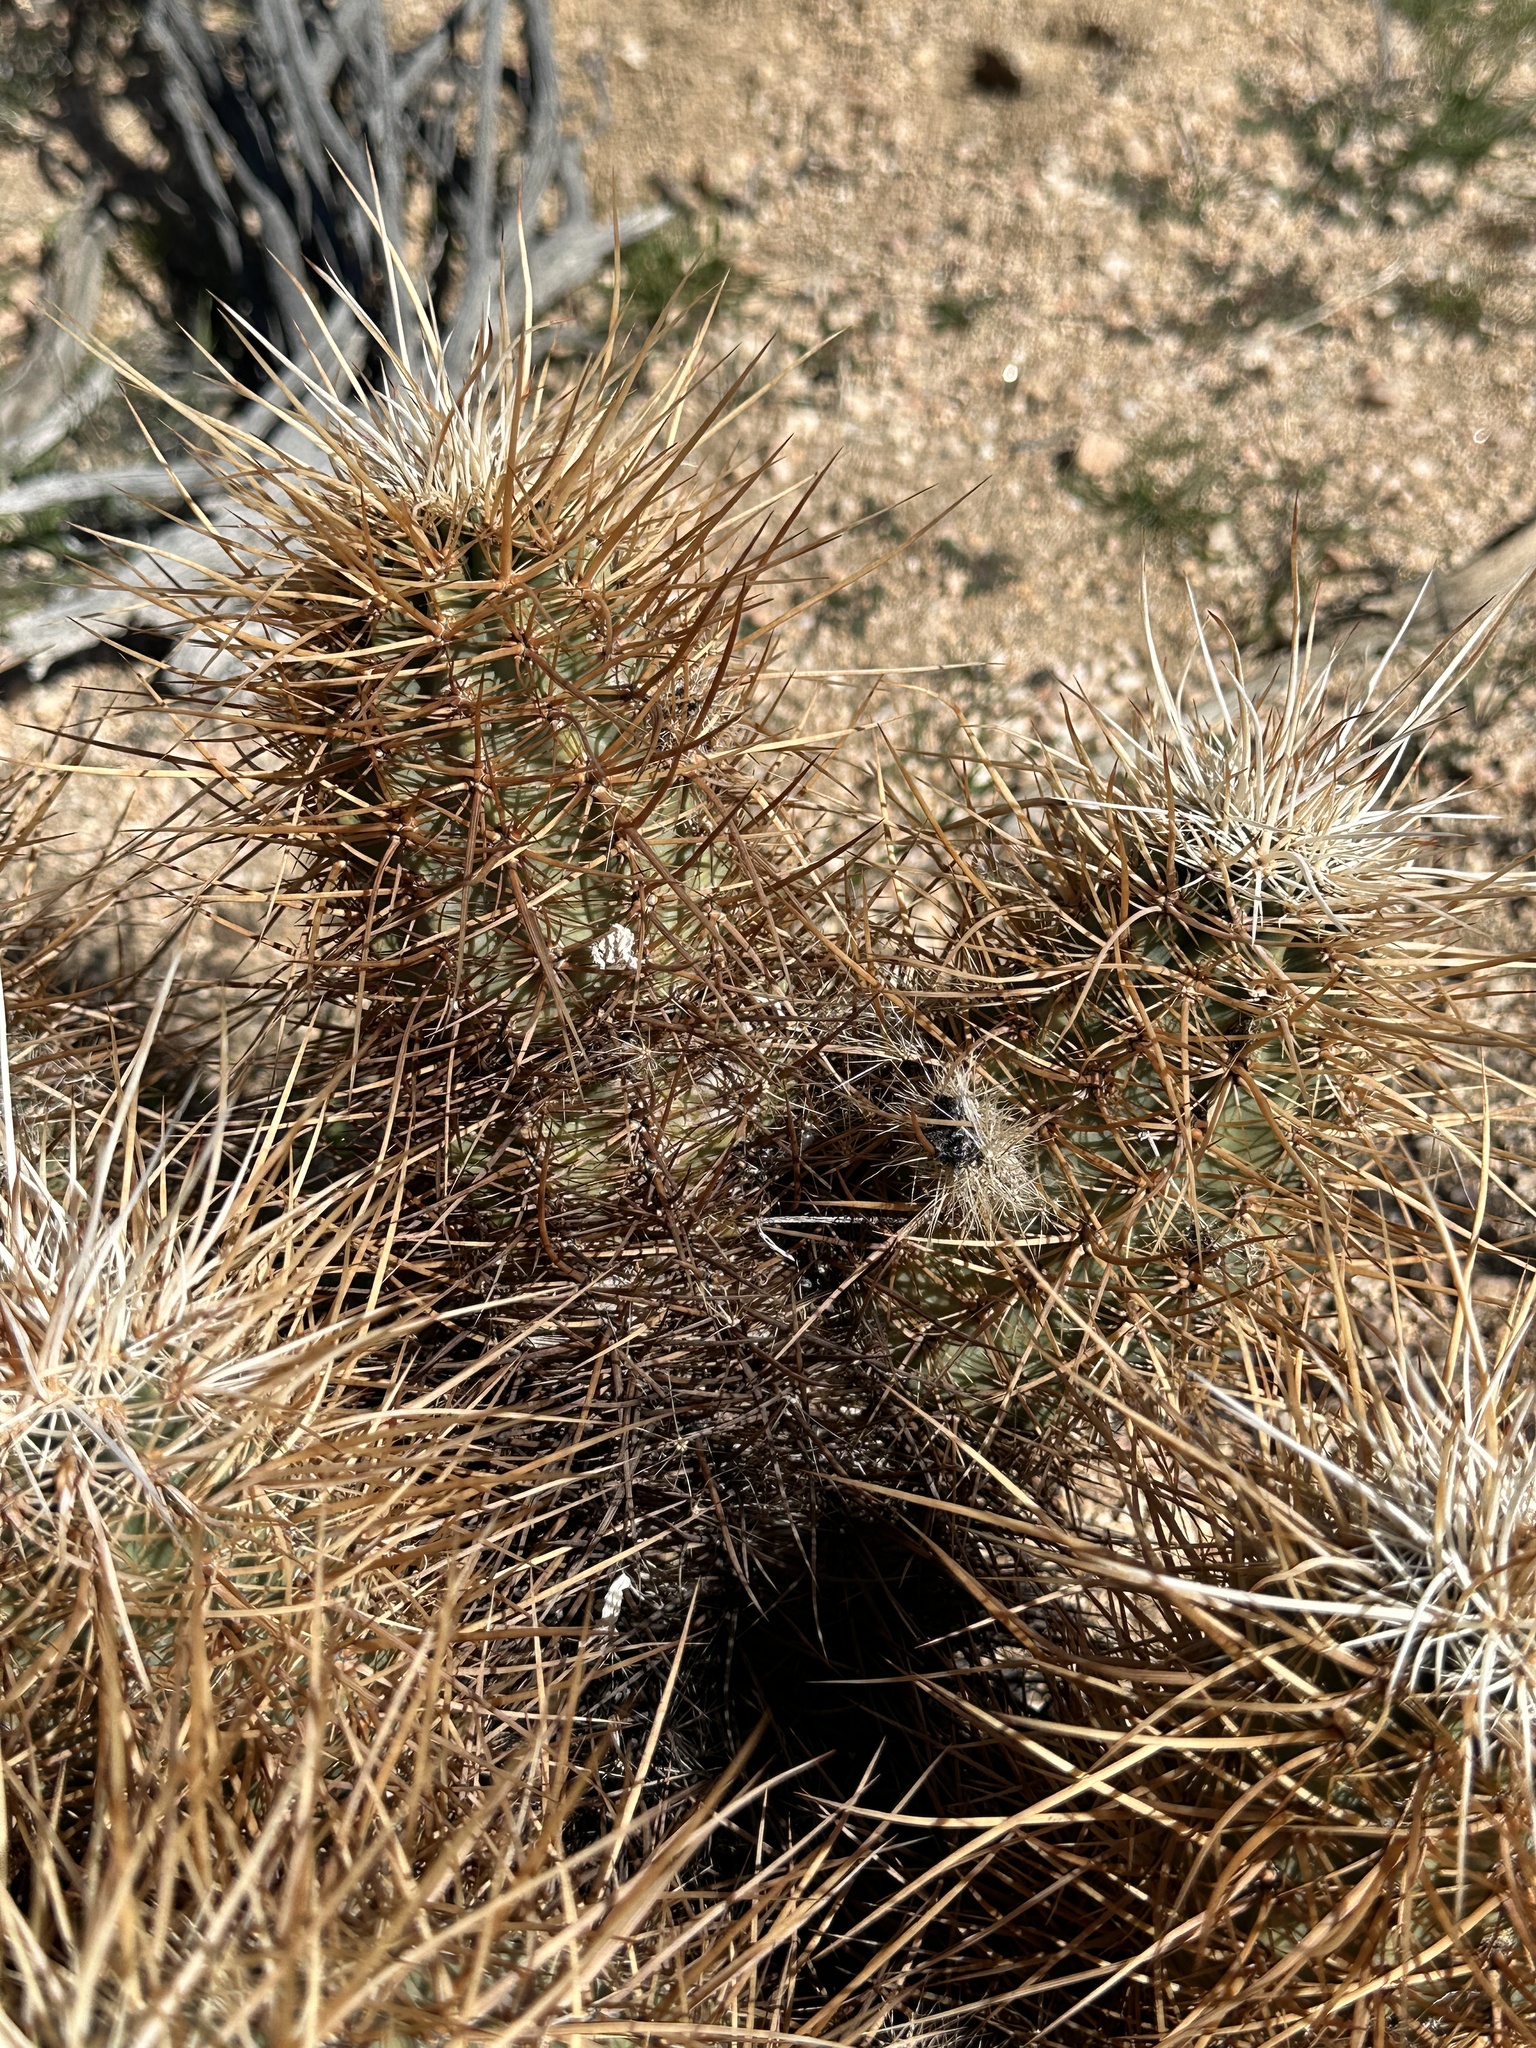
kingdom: Plantae
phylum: Tracheophyta
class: Magnoliopsida
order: Caryophyllales
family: Cactaceae
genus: Echinocereus
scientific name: Echinocereus engelmannii
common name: Engelmann's hedgehog cactus
